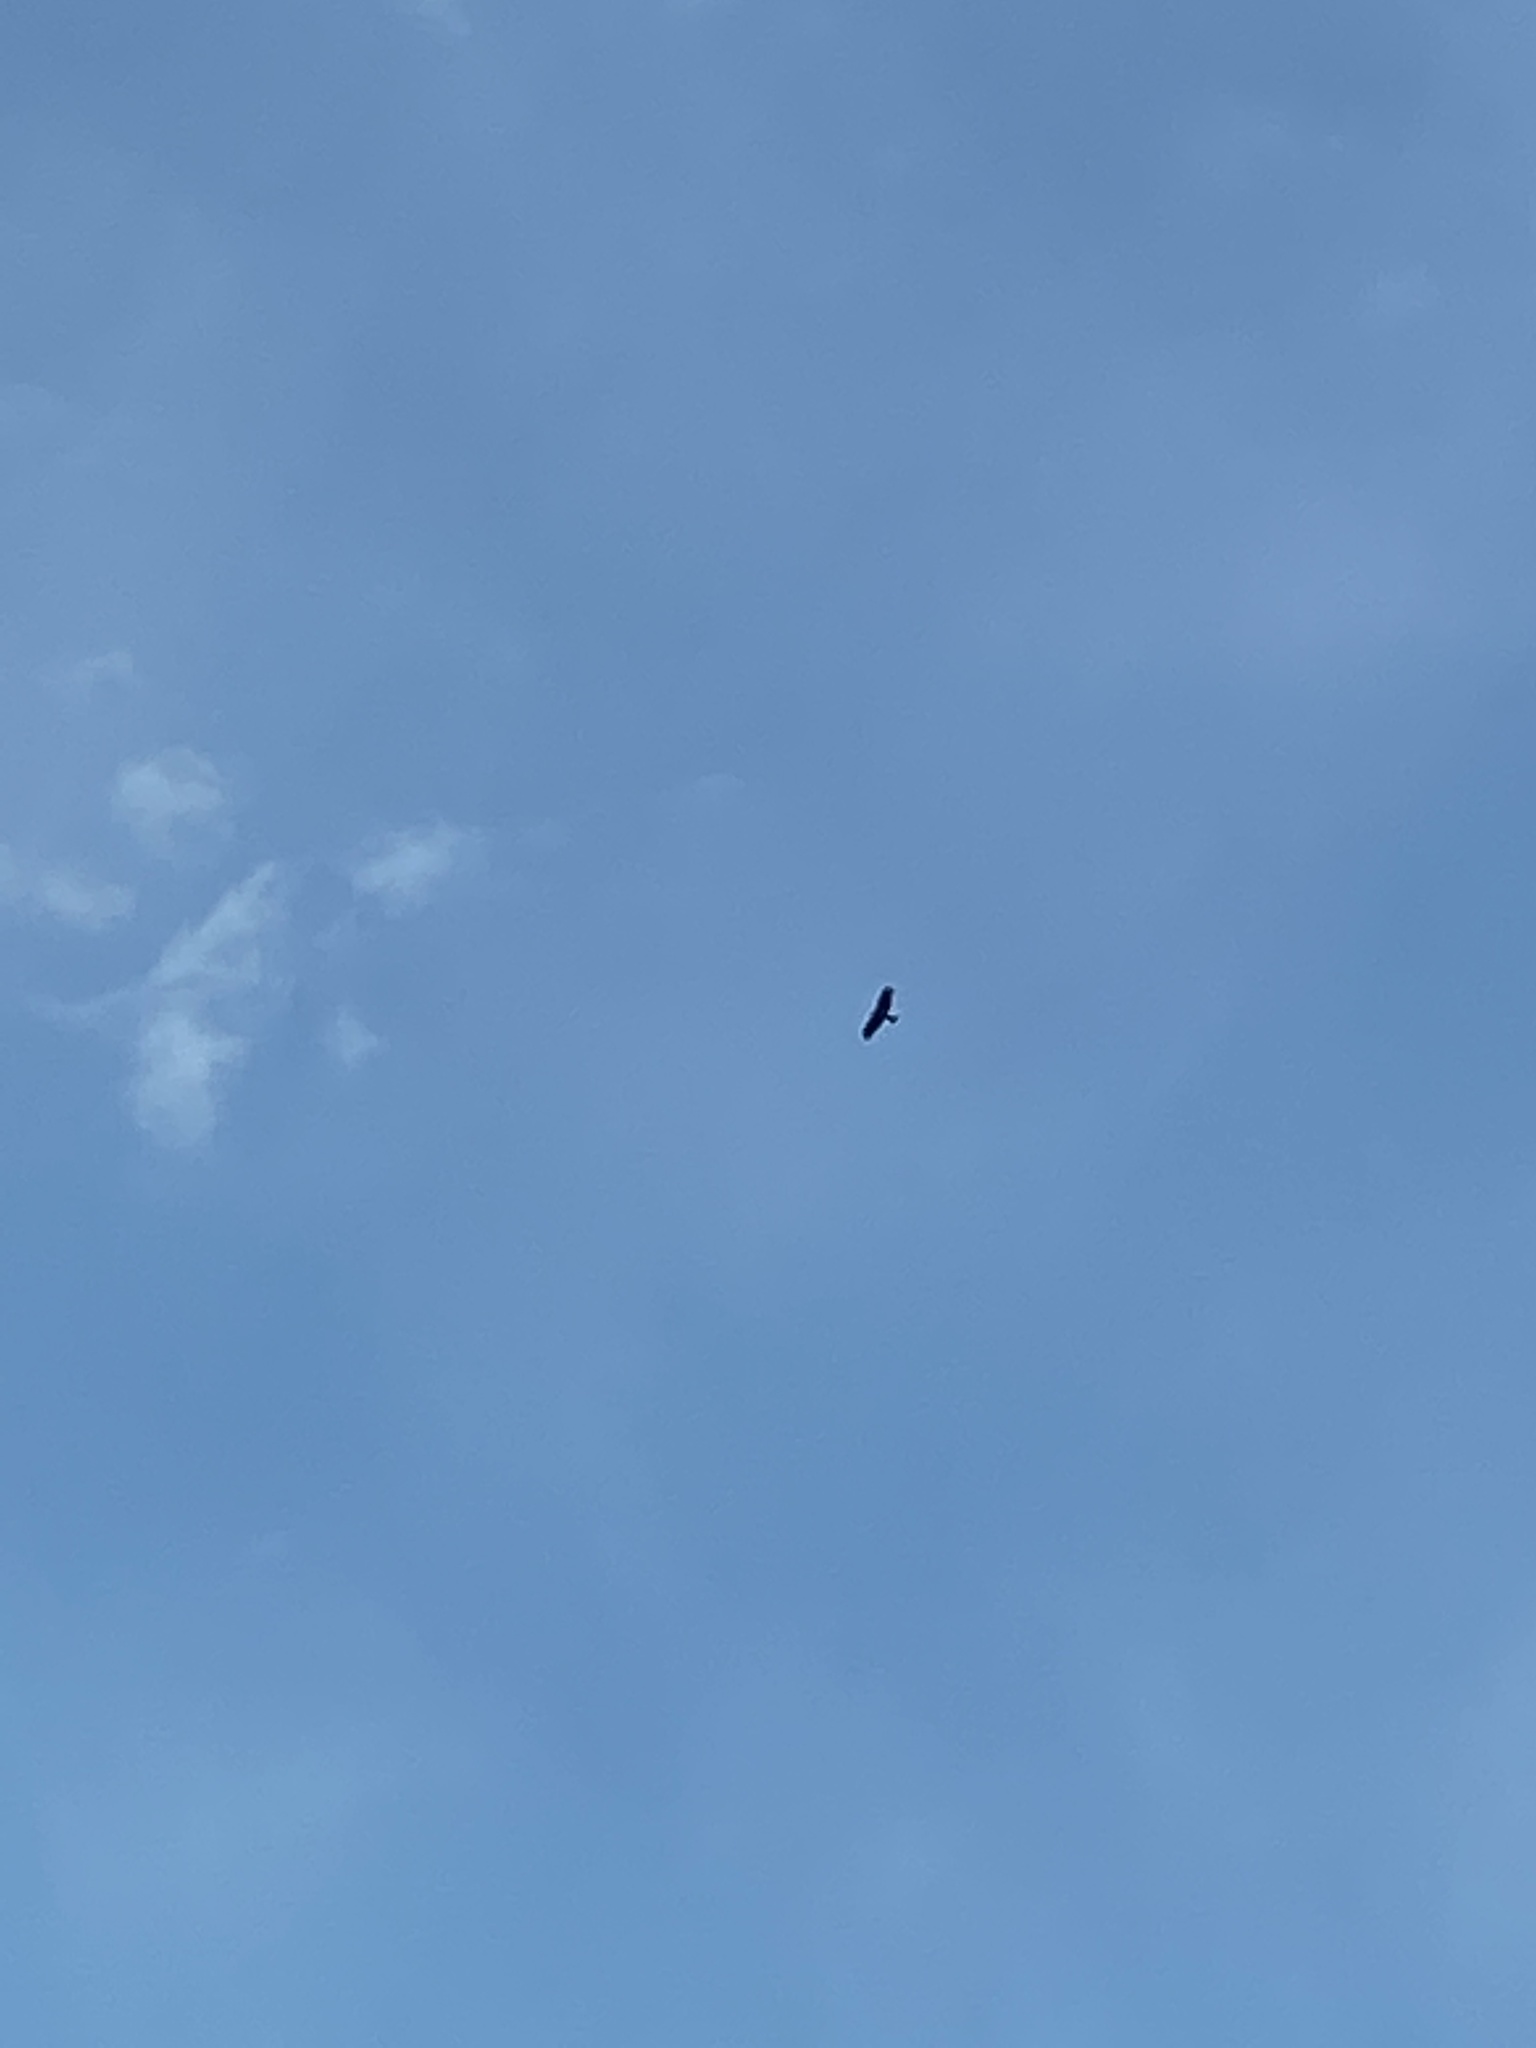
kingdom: Animalia
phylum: Chordata
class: Aves
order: Accipitriformes
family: Accipitridae
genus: Milvus
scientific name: Milvus migrans
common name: Black kite
